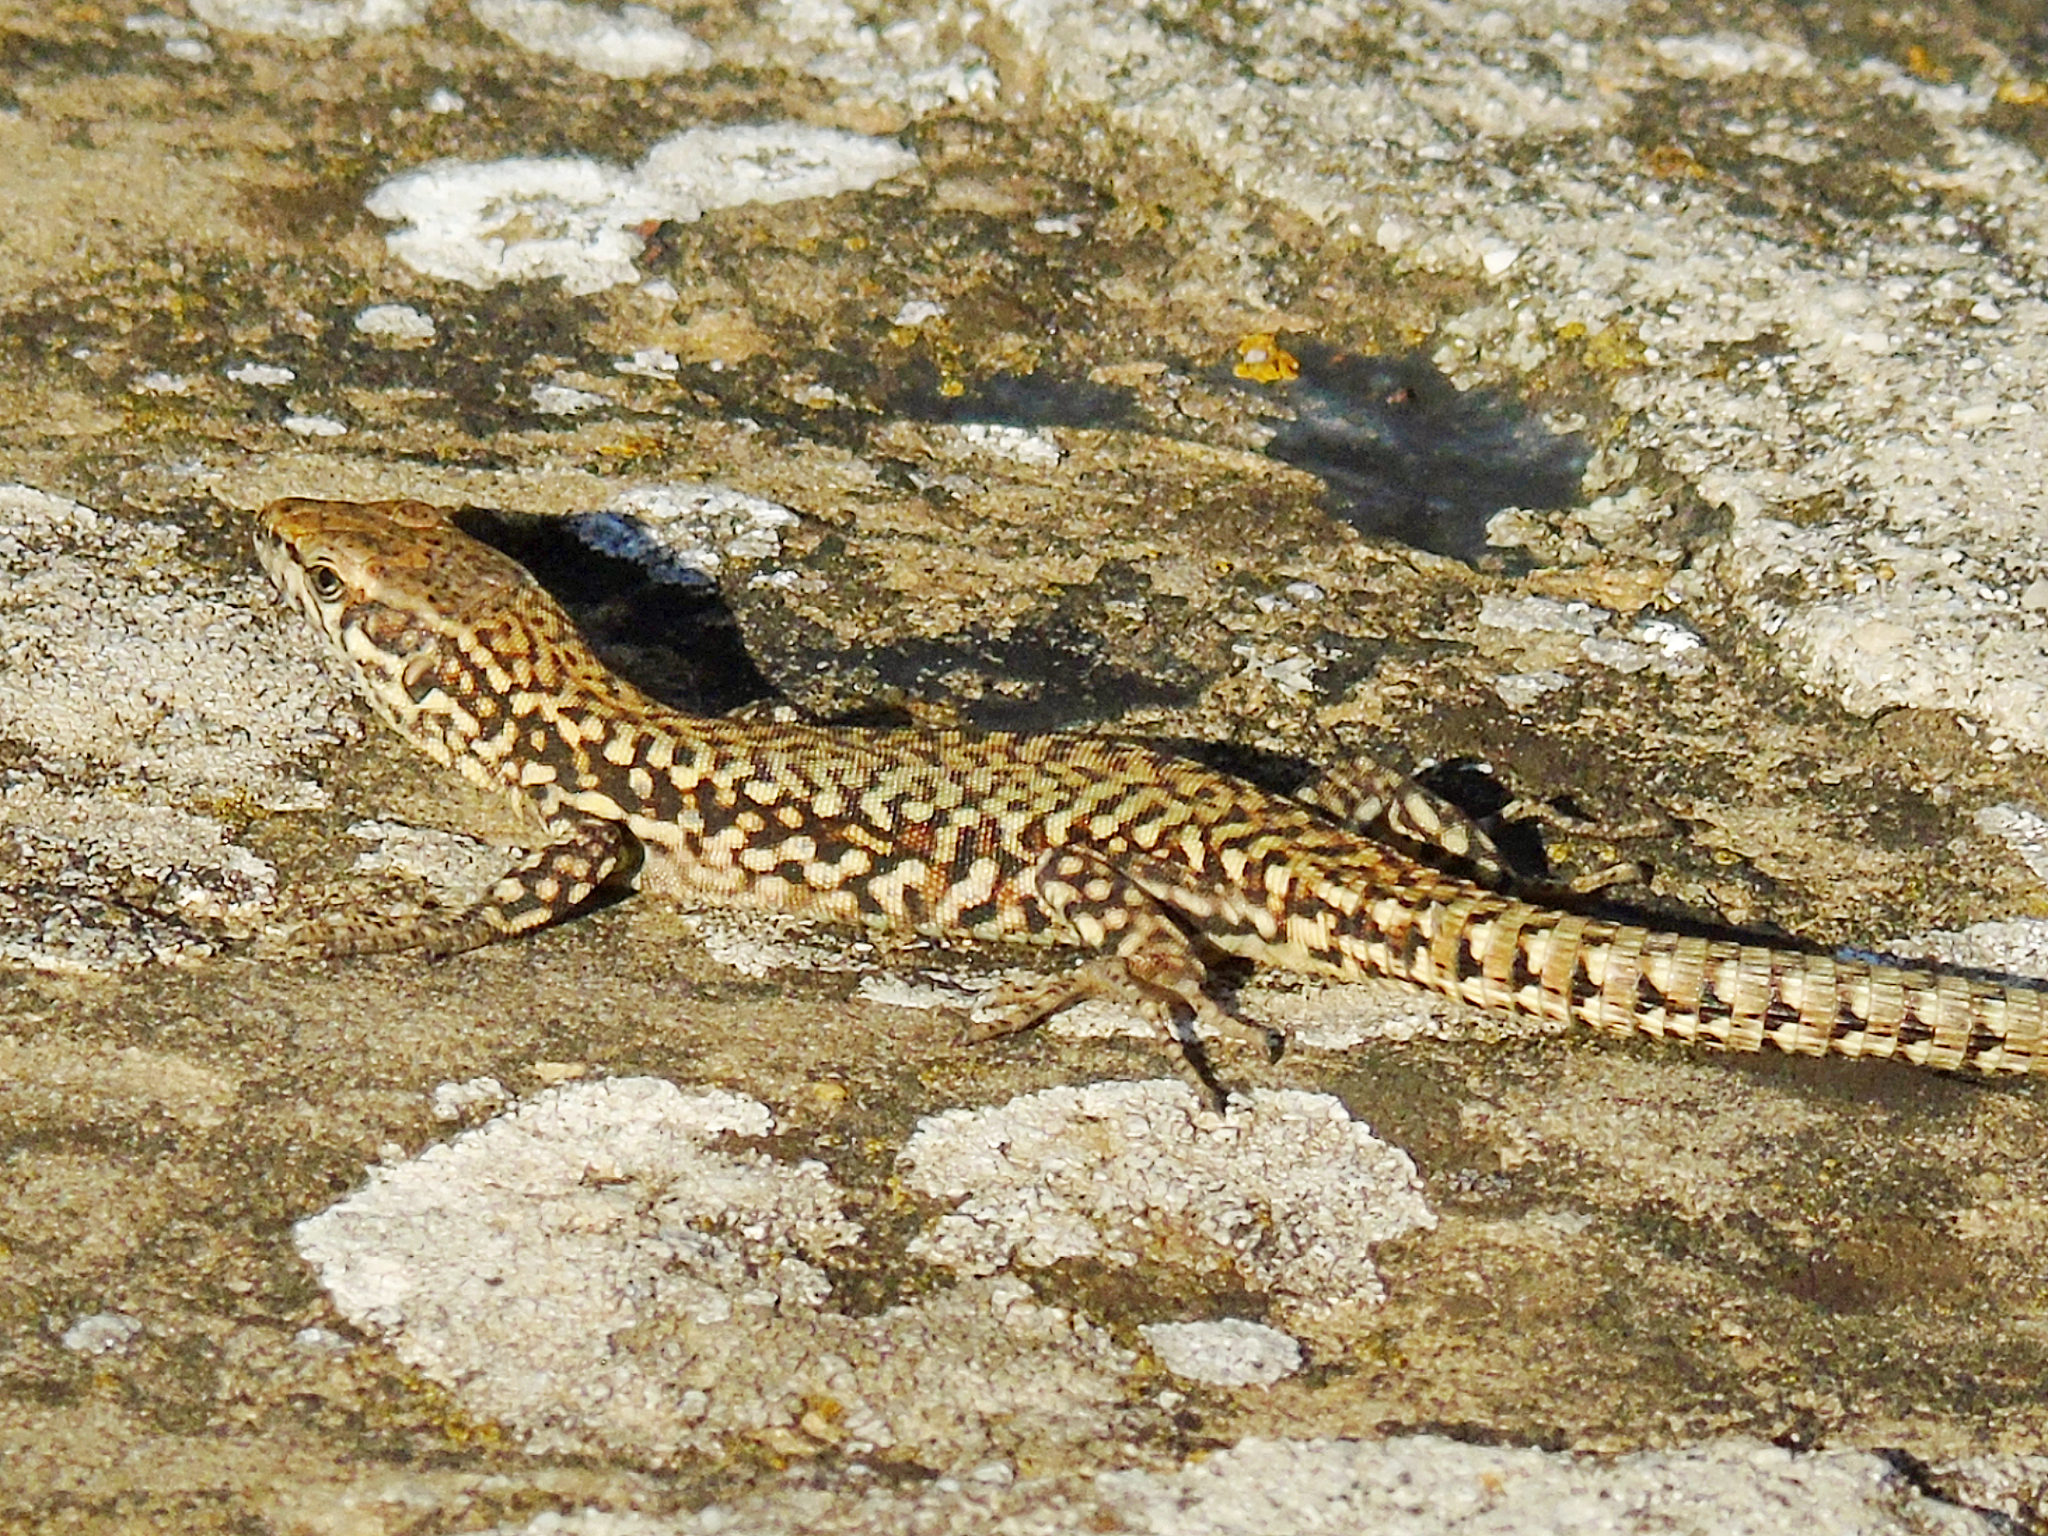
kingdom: Animalia
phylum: Chordata
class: Squamata
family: Lacertidae
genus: Podarcis
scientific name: Podarcis muralis
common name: Common wall lizard
